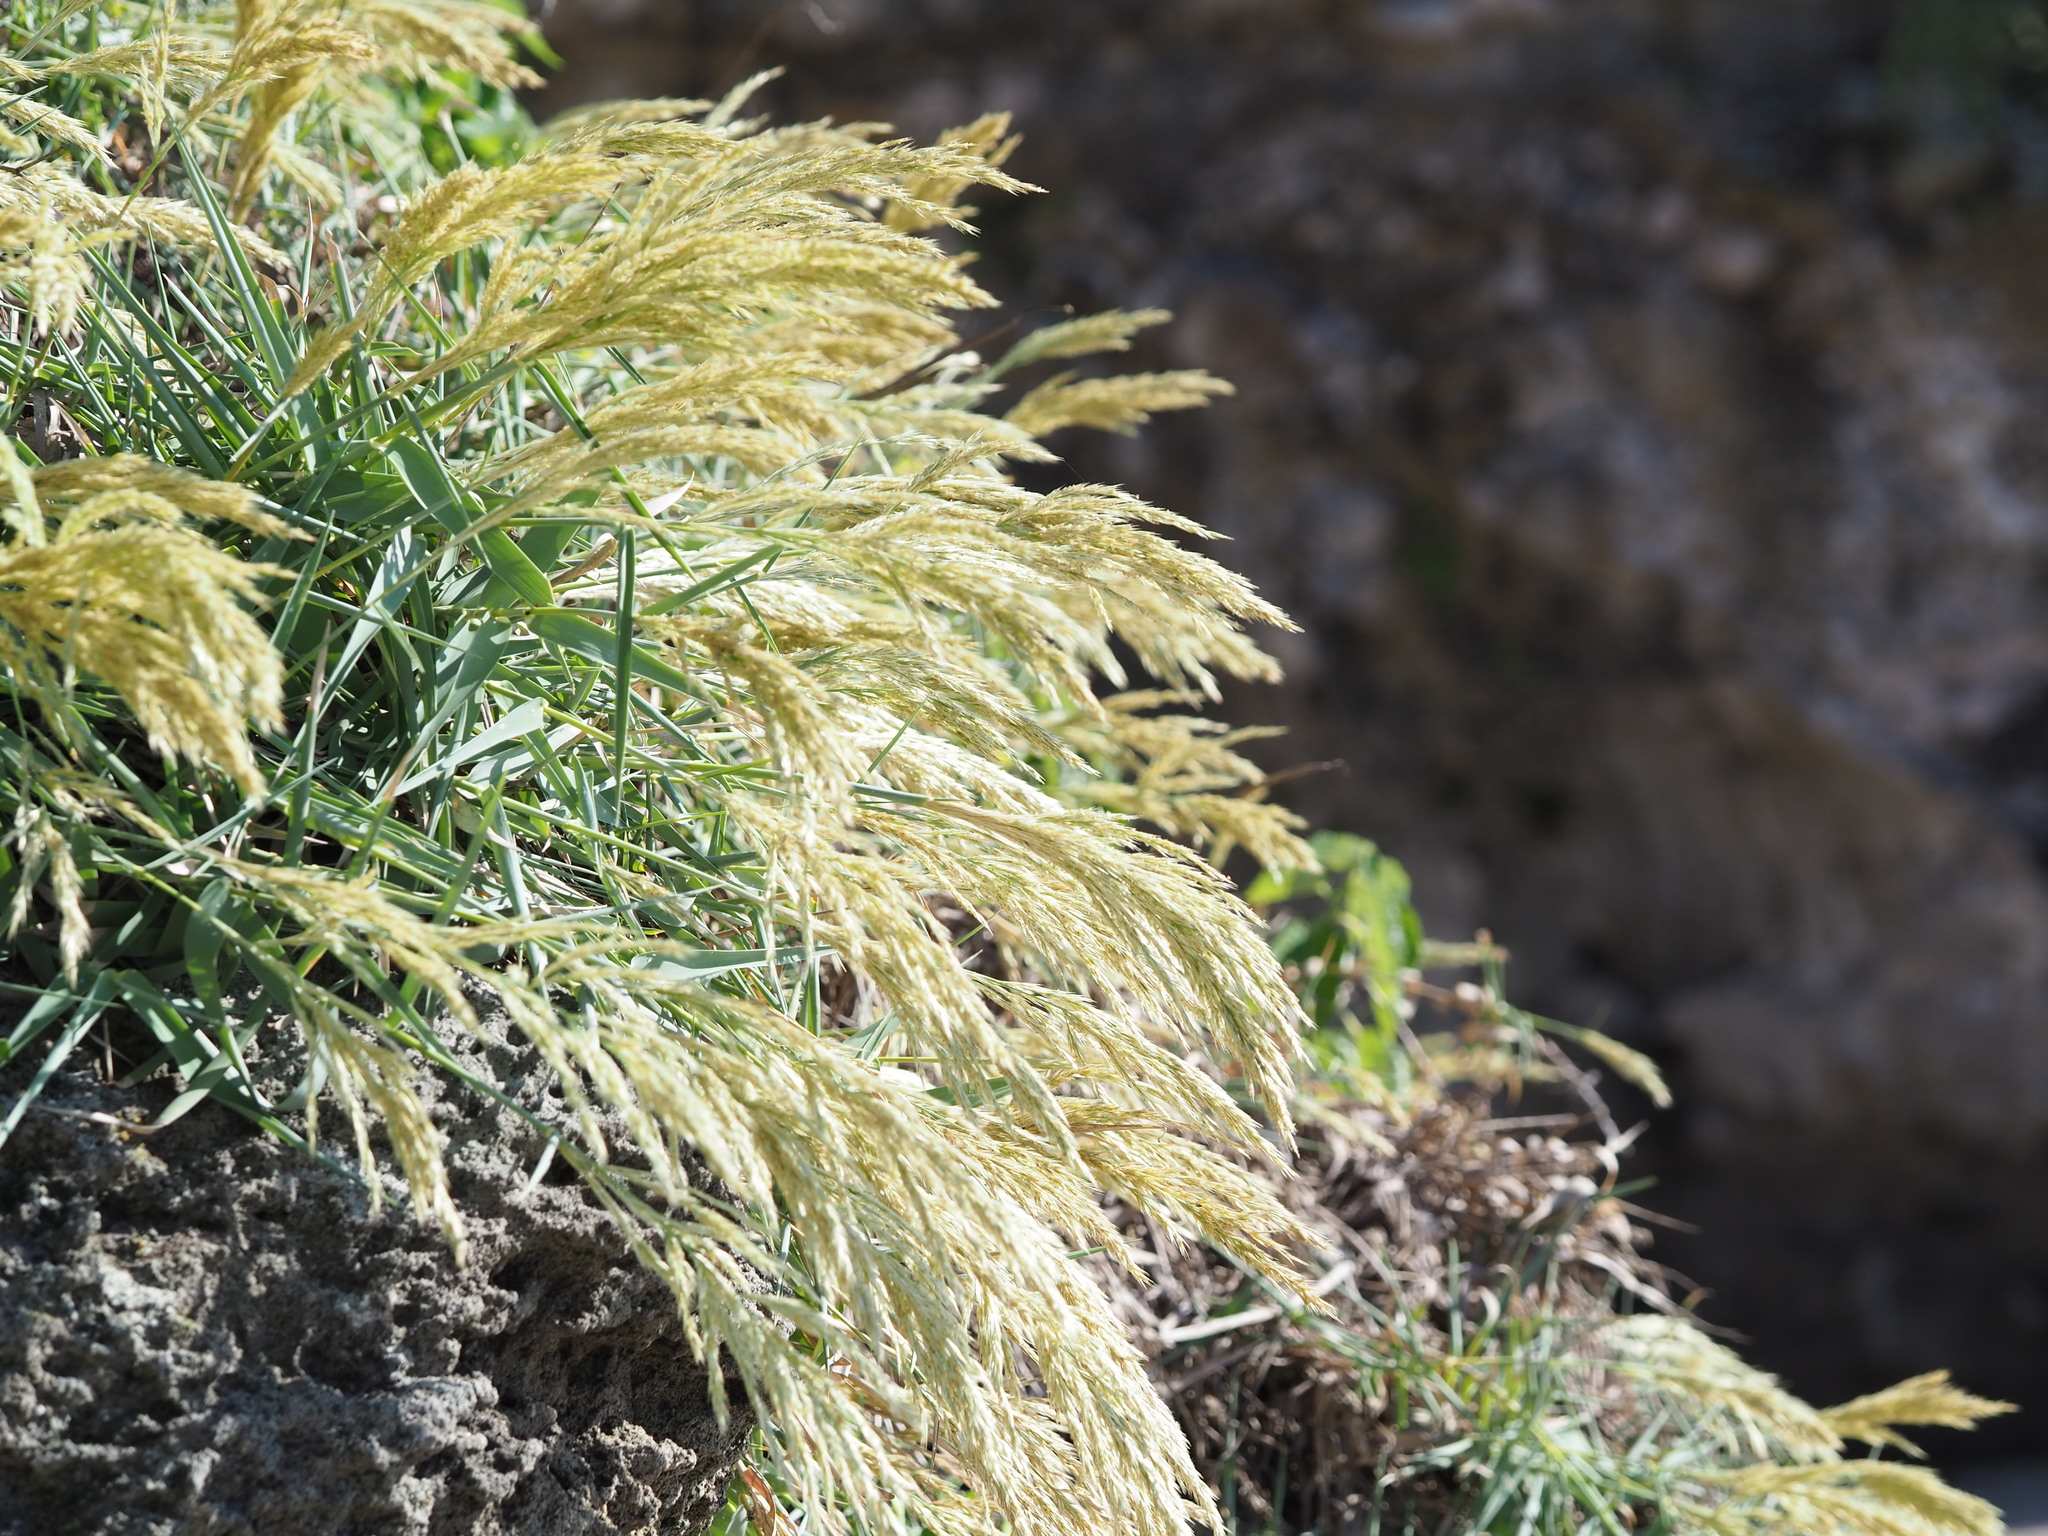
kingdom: Plantae
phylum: Tracheophyta
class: Liliopsida
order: Poales
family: Poaceae
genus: Arundo
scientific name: Arundo formosana
